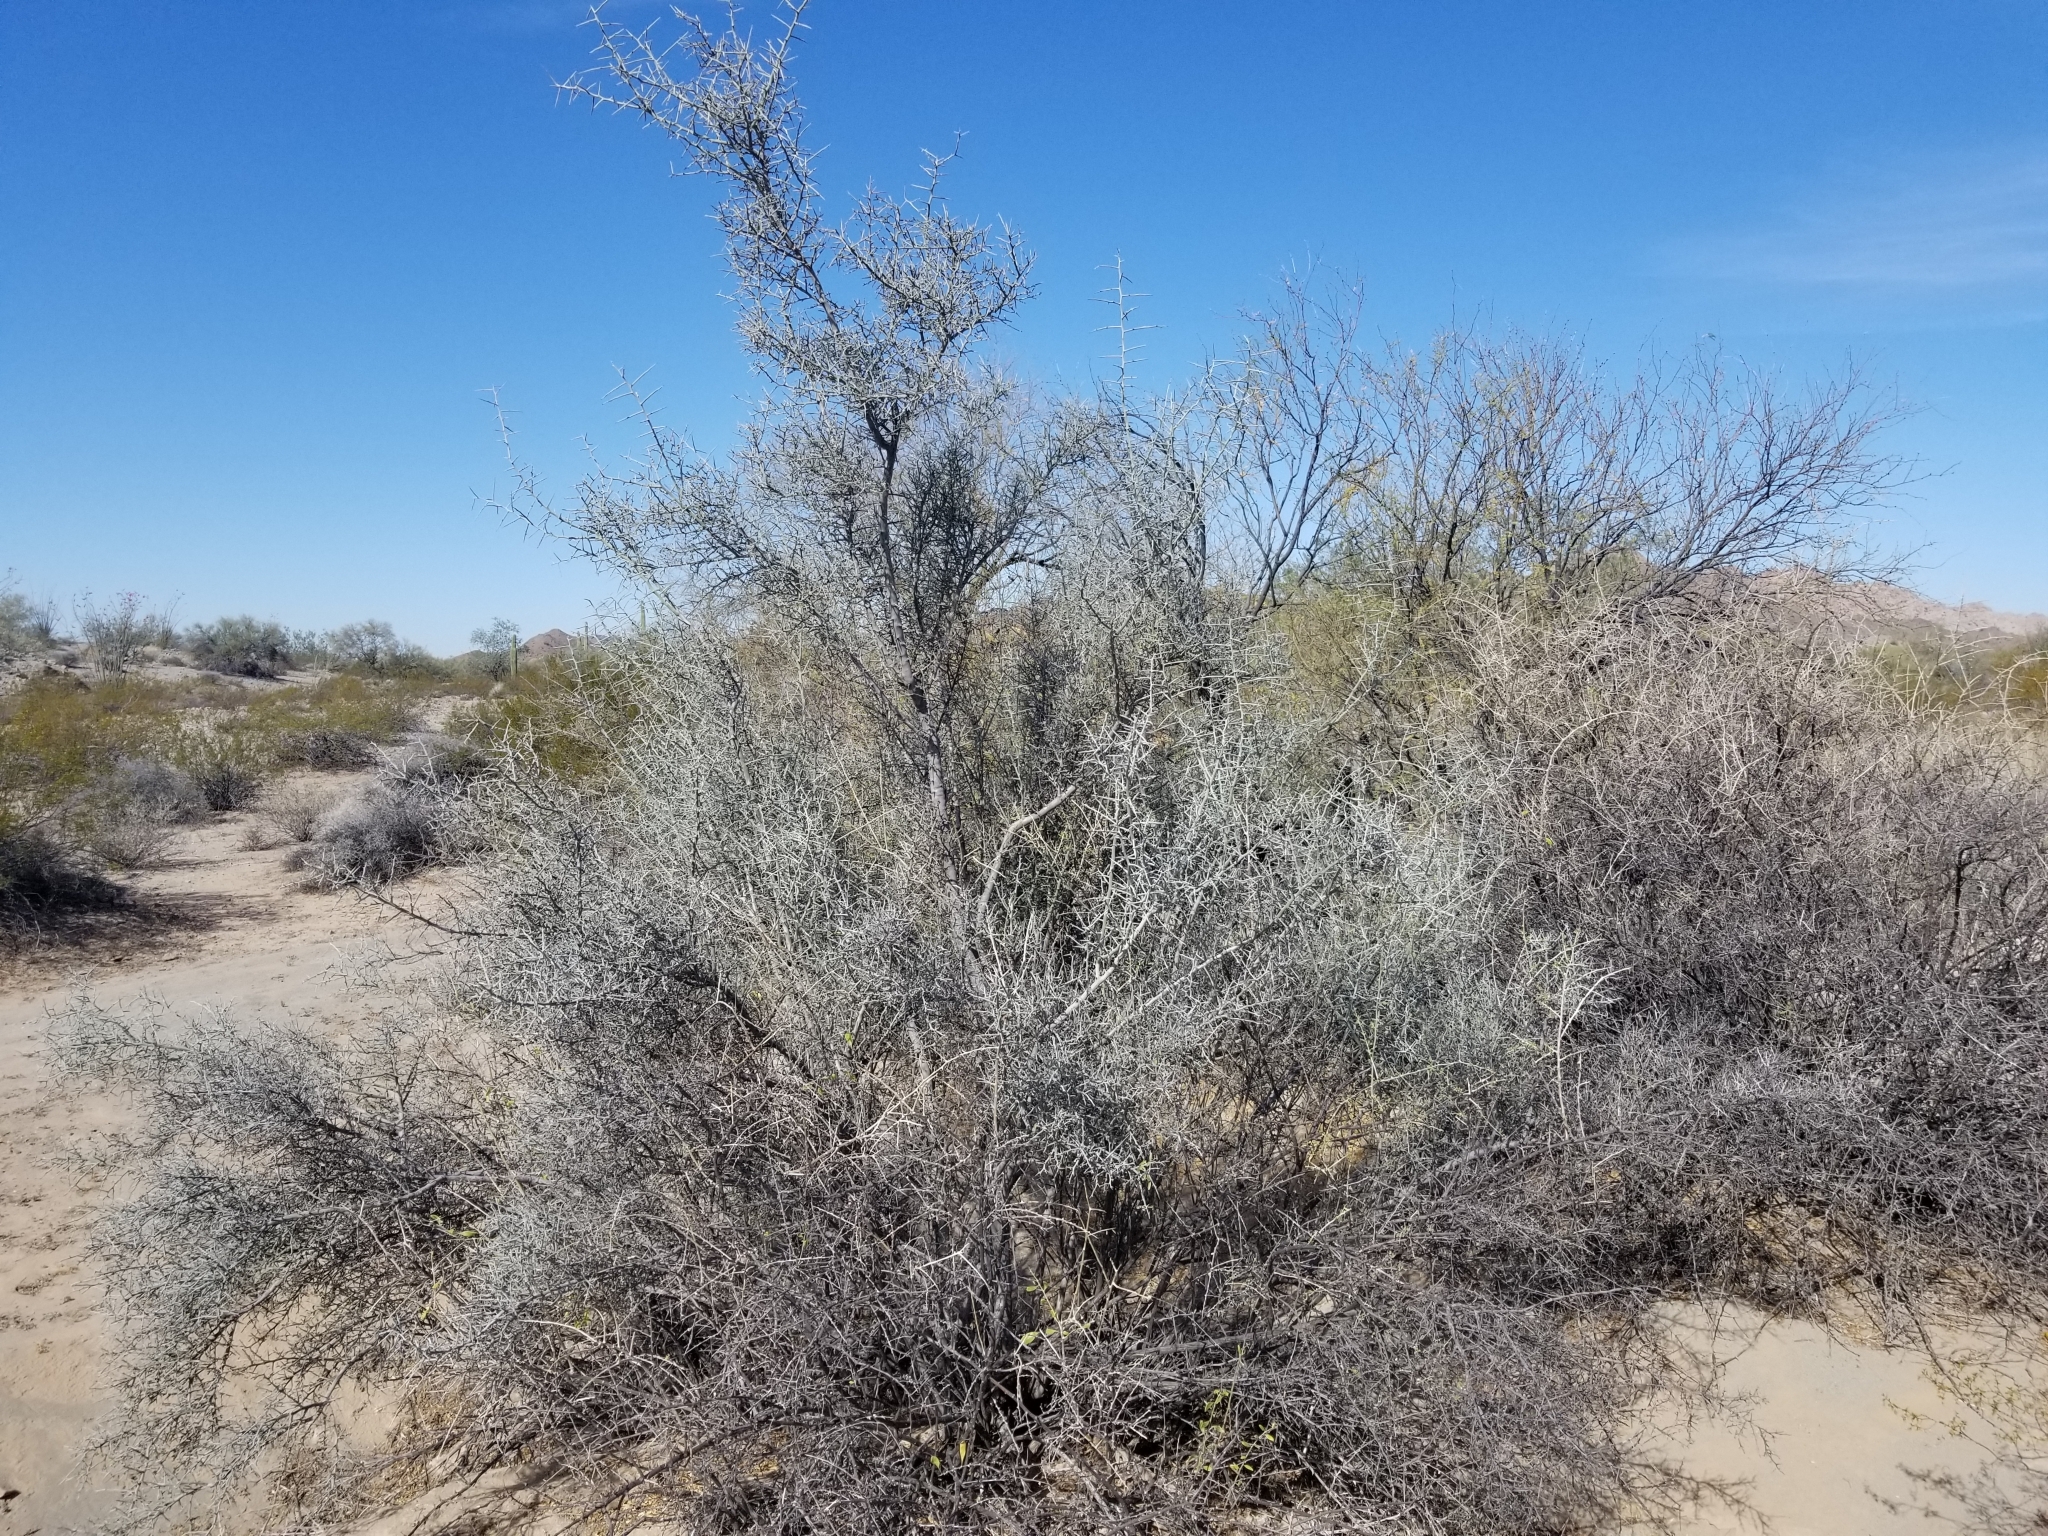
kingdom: Plantae
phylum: Tracheophyta
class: Magnoliopsida
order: Rosales
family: Rhamnaceae
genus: Sarcomphalus
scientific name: Sarcomphalus obtusifolius
